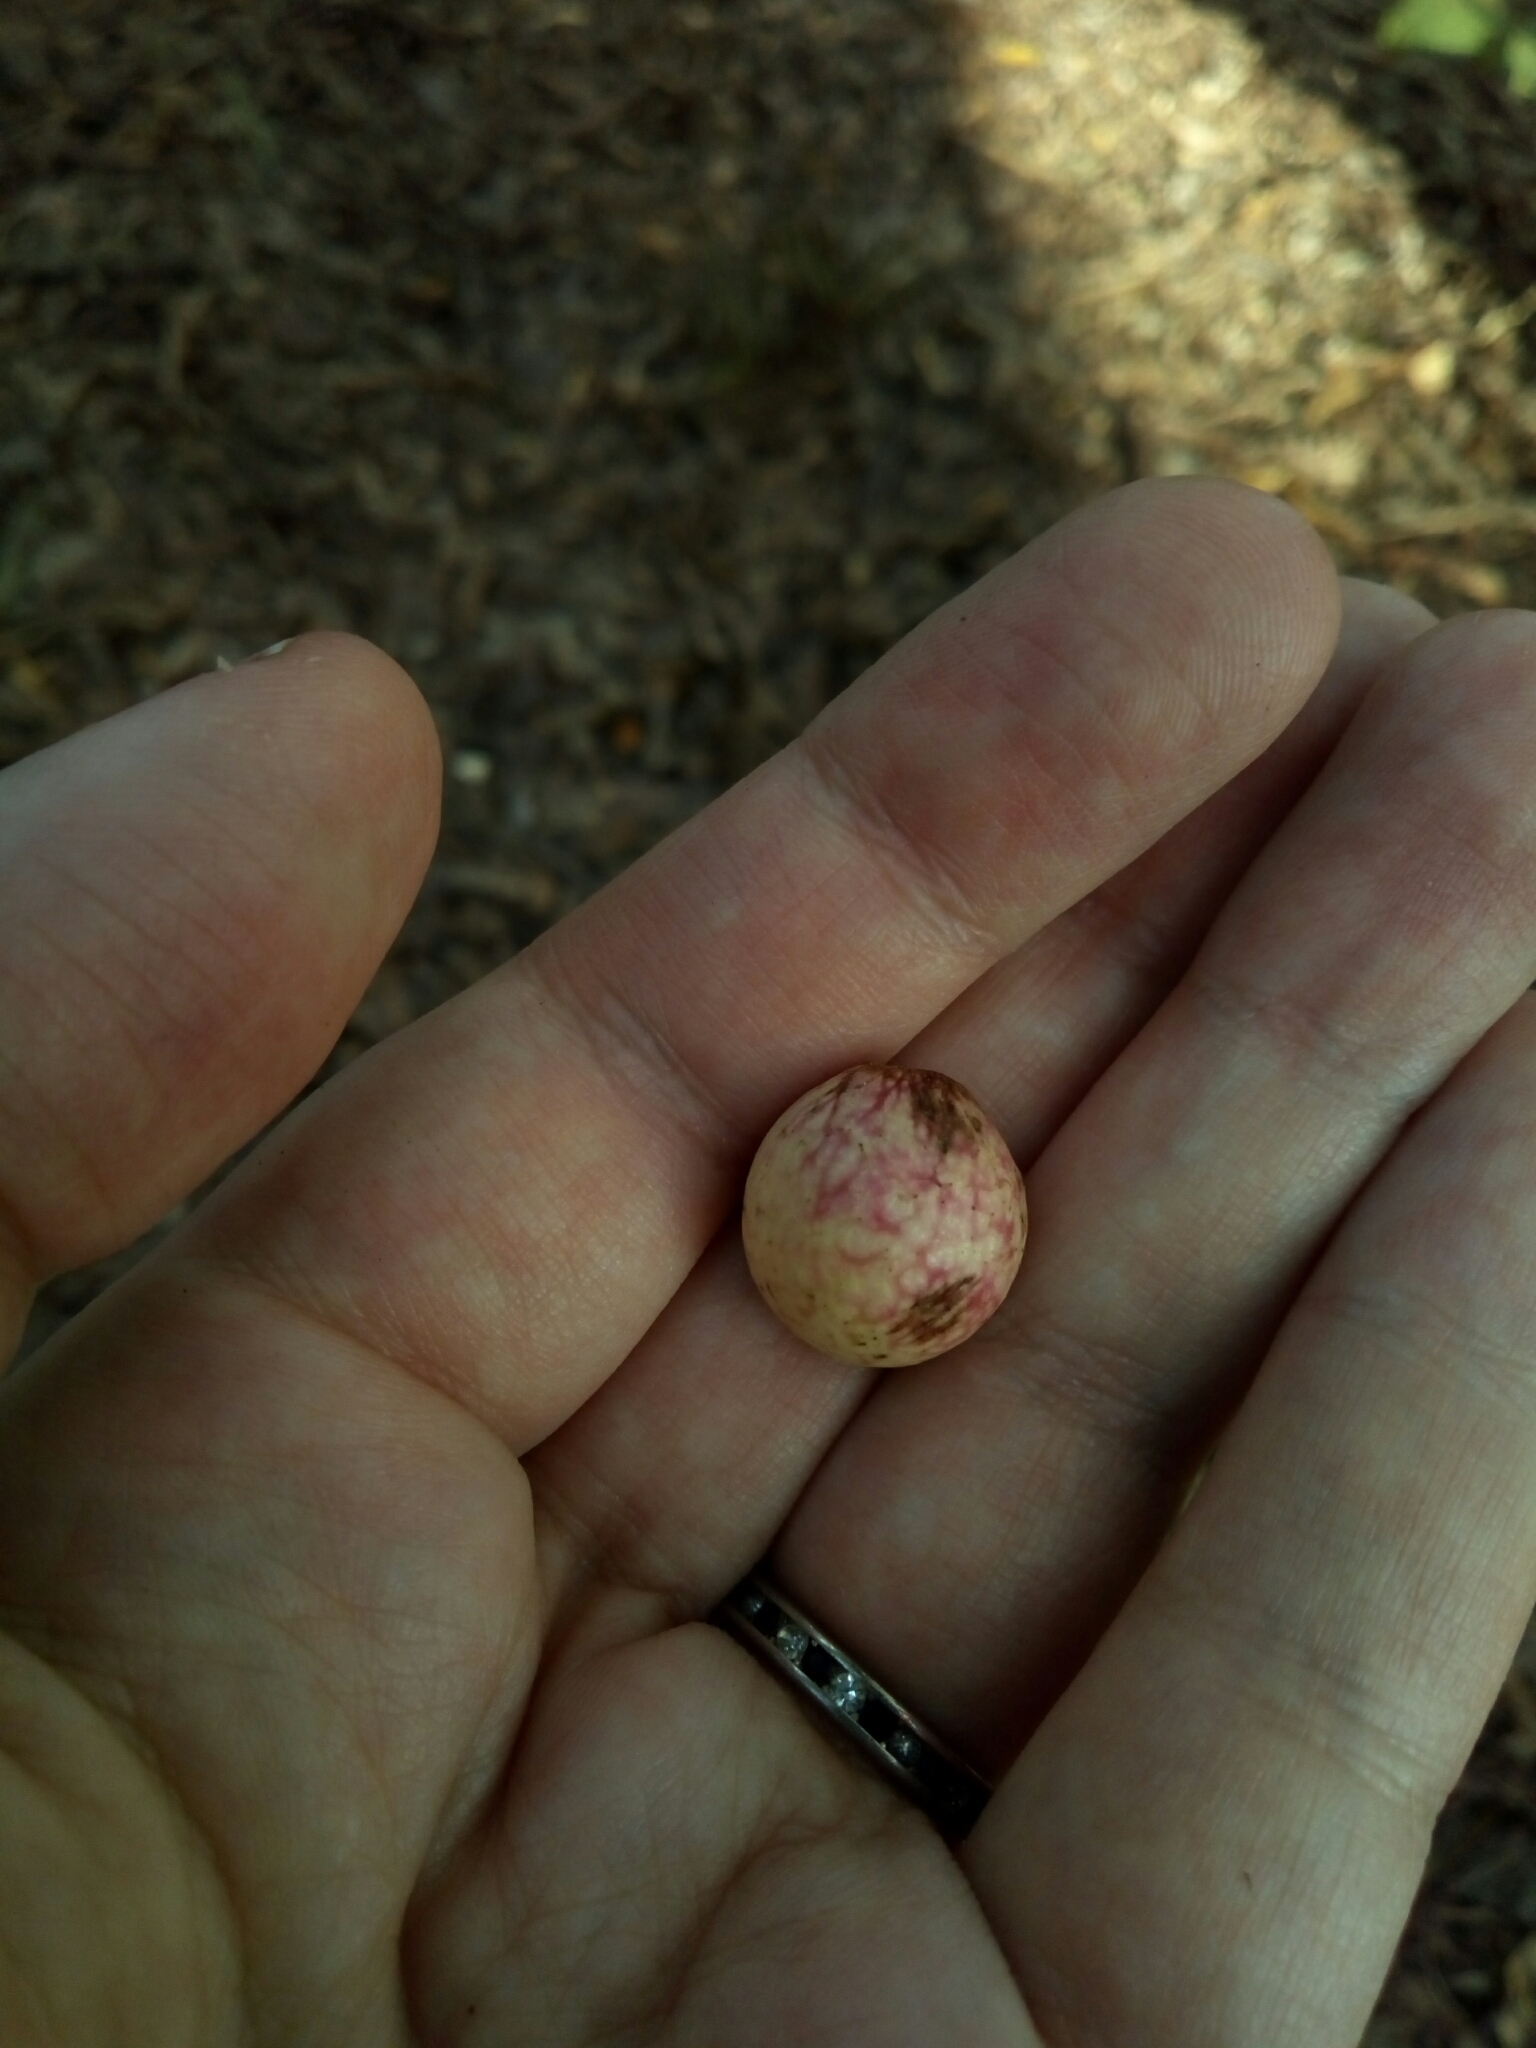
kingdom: Animalia
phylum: Arthropoda
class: Insecta
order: Hymenoptera
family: Cynipidae
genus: Amphibolips
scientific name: Amphibolips
